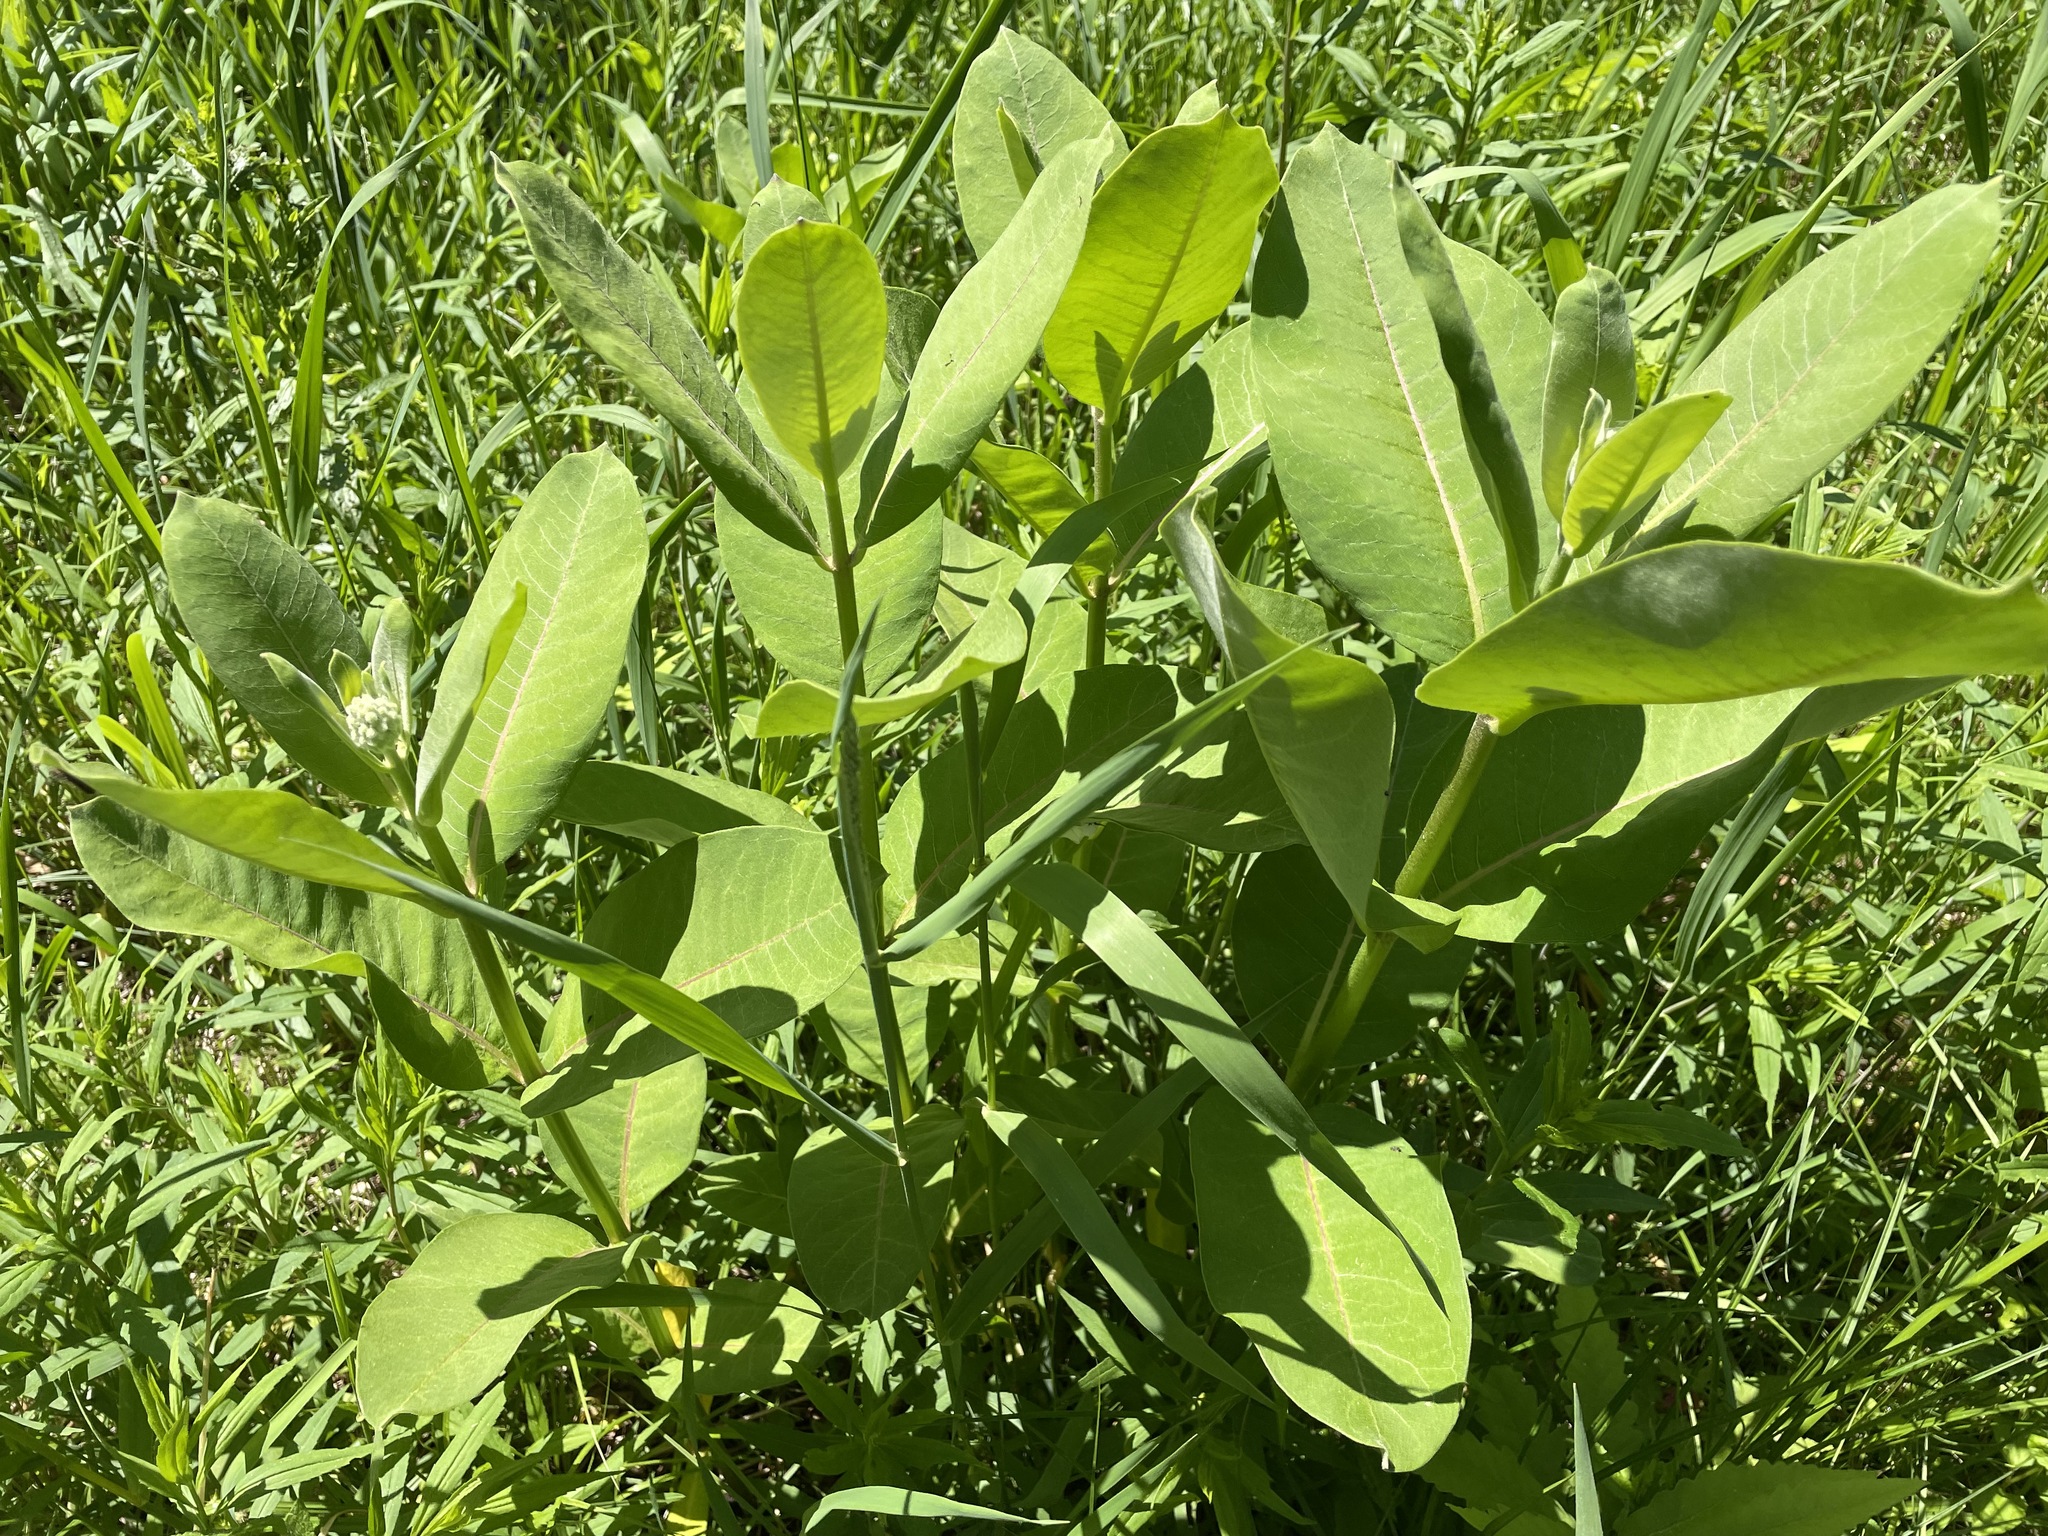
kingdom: Plantae
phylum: Tracheophyta
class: Magnoliopsida
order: Gentianales
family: Apocynaceae
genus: Asclepias
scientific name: Asclepias syriaca
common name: Common milkweed
